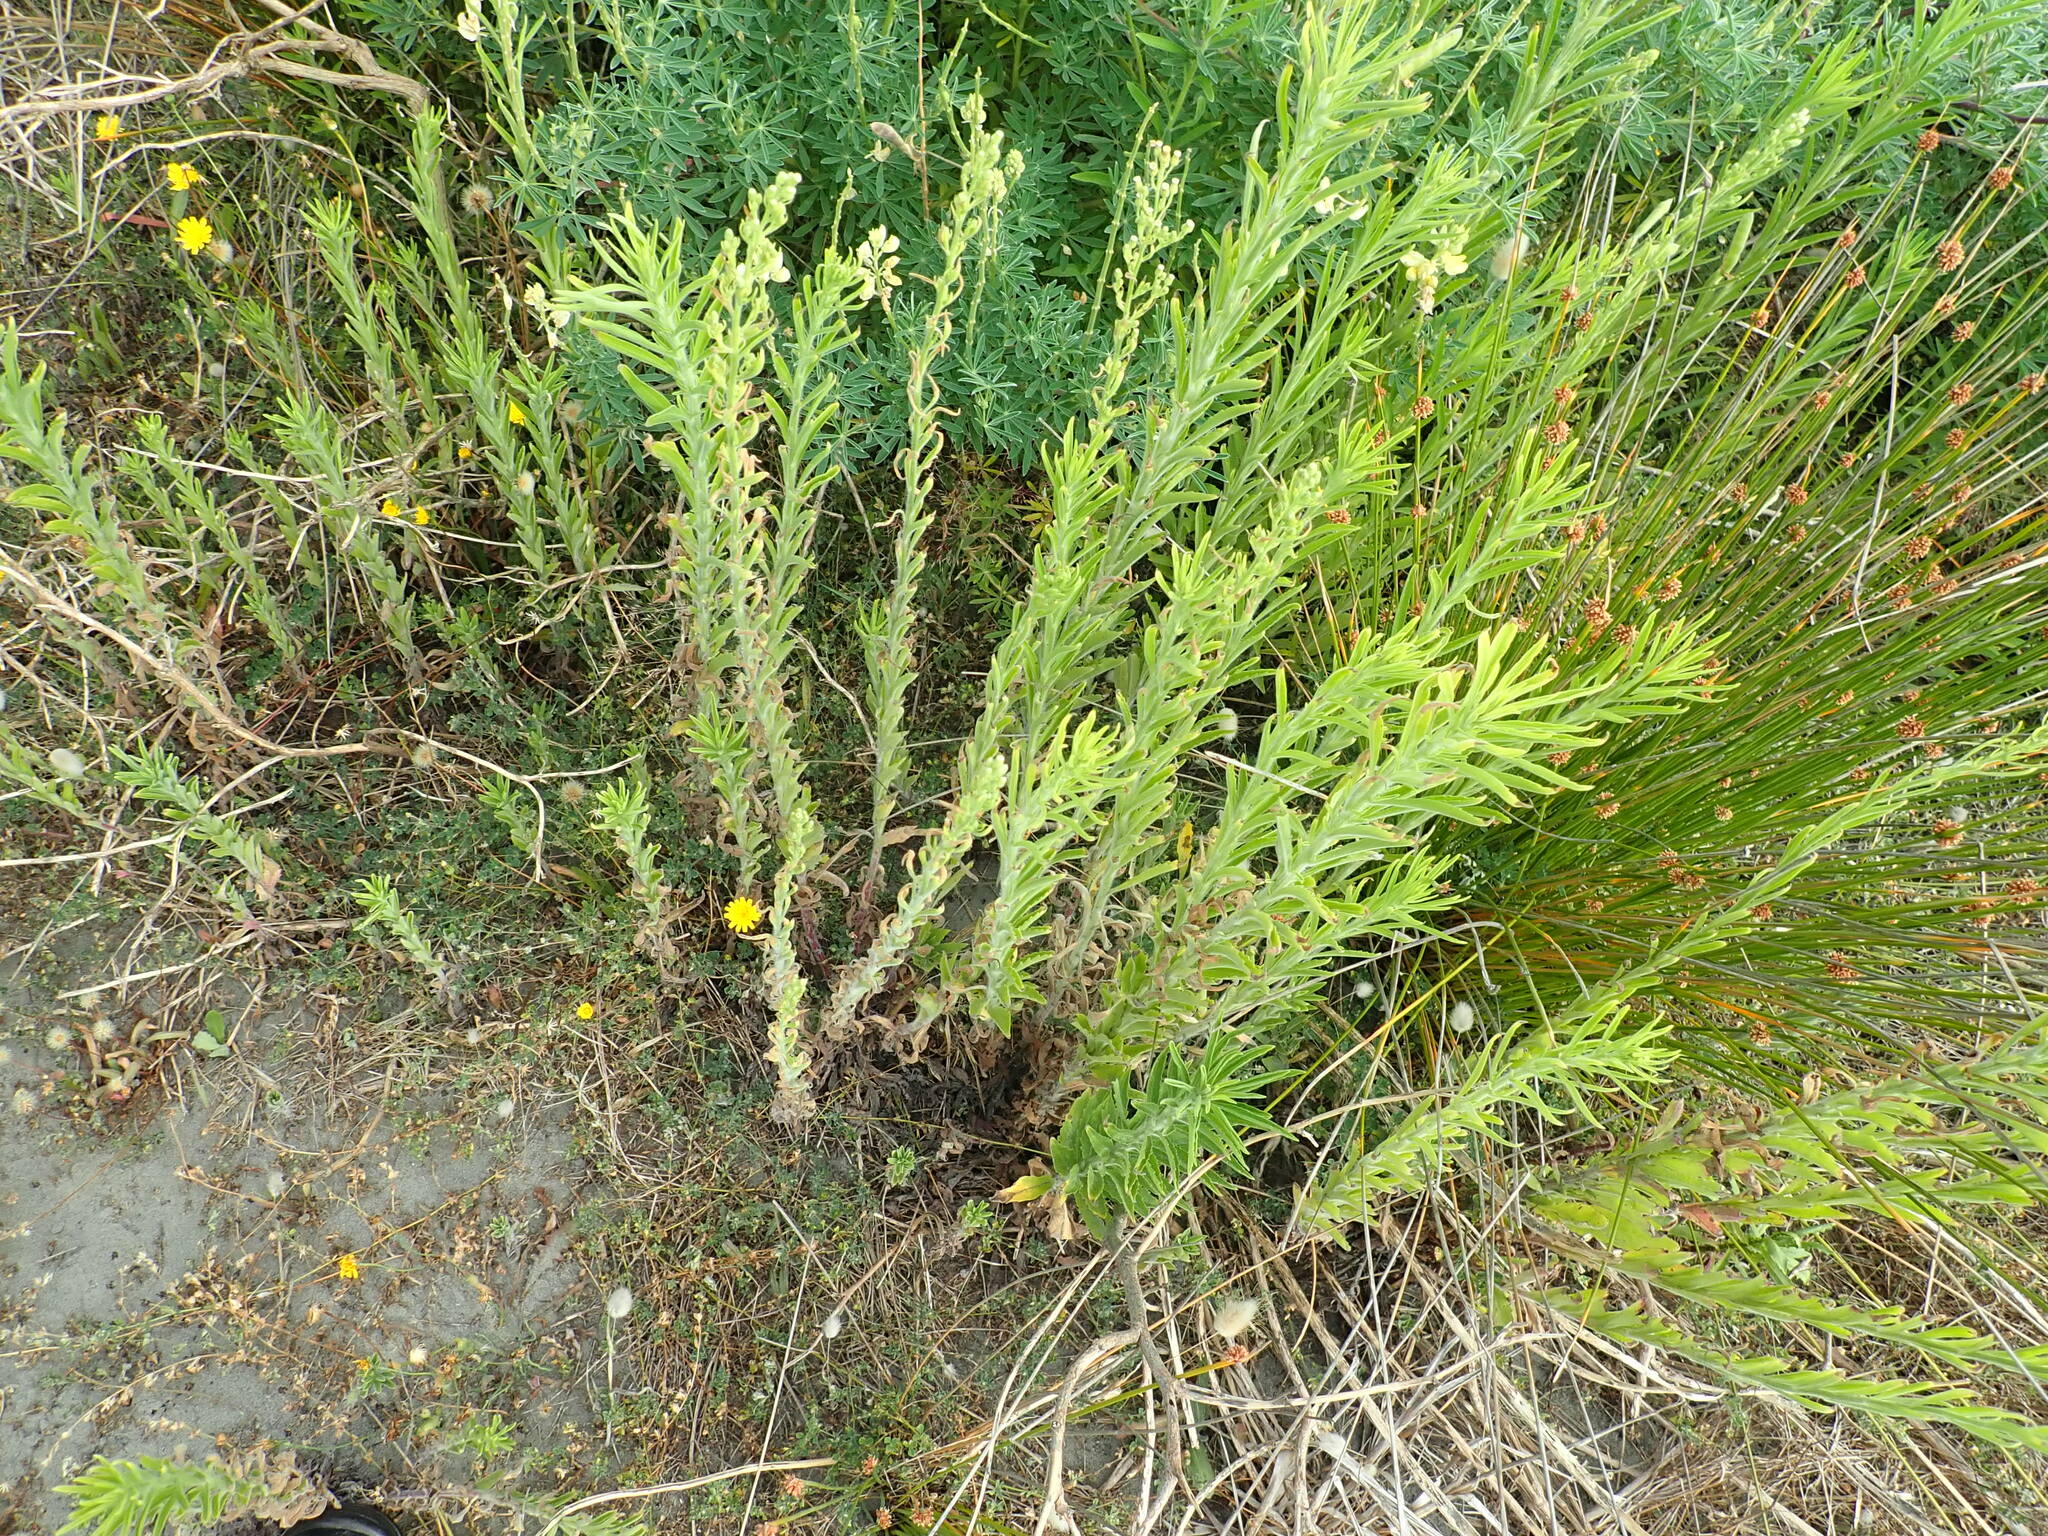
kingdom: Plantae
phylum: Tracheophyta
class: Magnoliopsida
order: Asterales
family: Asteraceae
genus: Erigeron
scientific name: Erigeron sumatrensis
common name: Daisy
